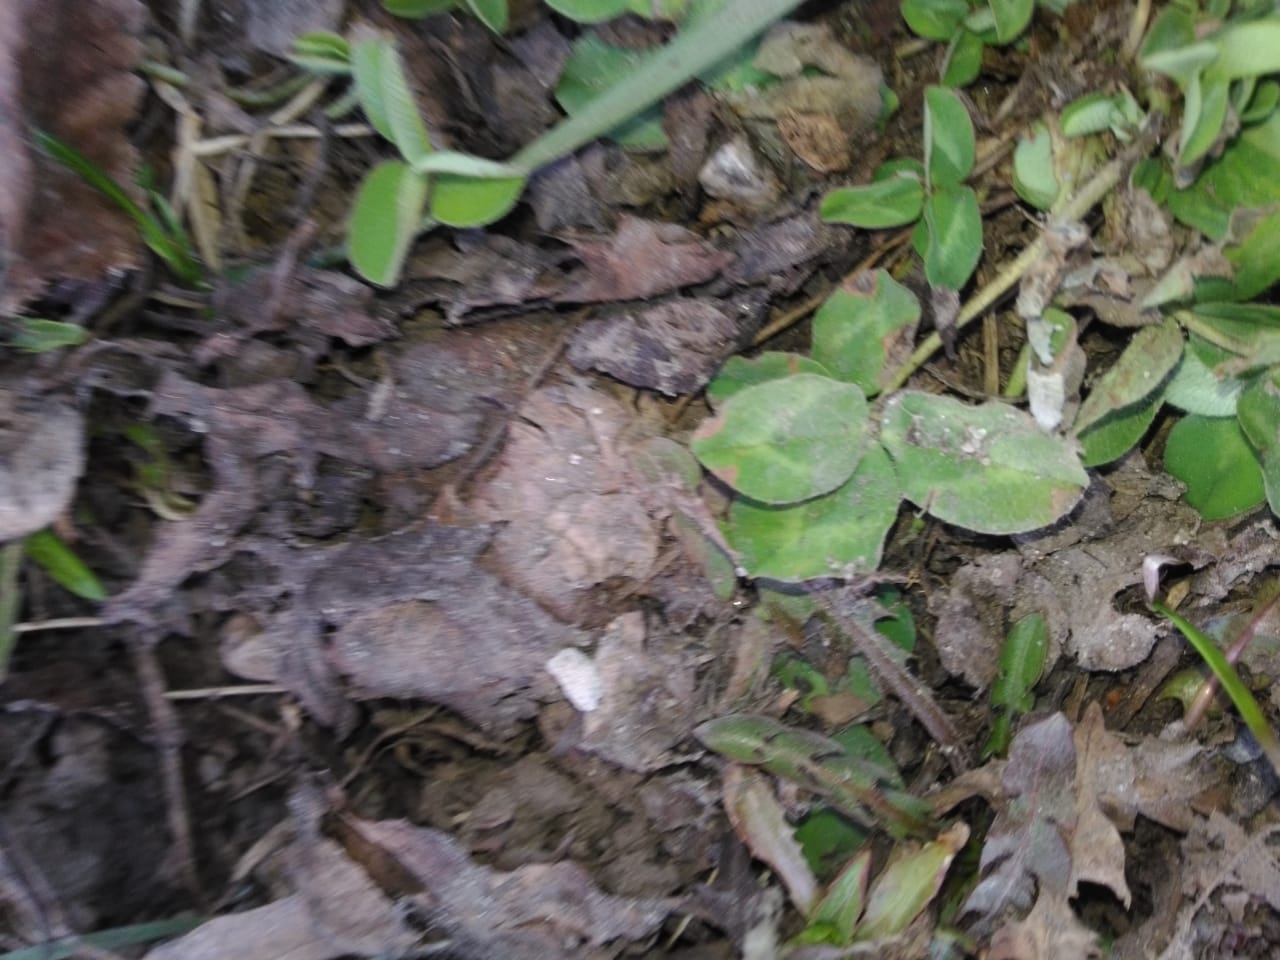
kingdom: Plantae
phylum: Tracheophyta
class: Magnoliopsida
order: Fabales
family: Fabaceae
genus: Trifolium
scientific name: Trifolium pratense
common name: Red clover
